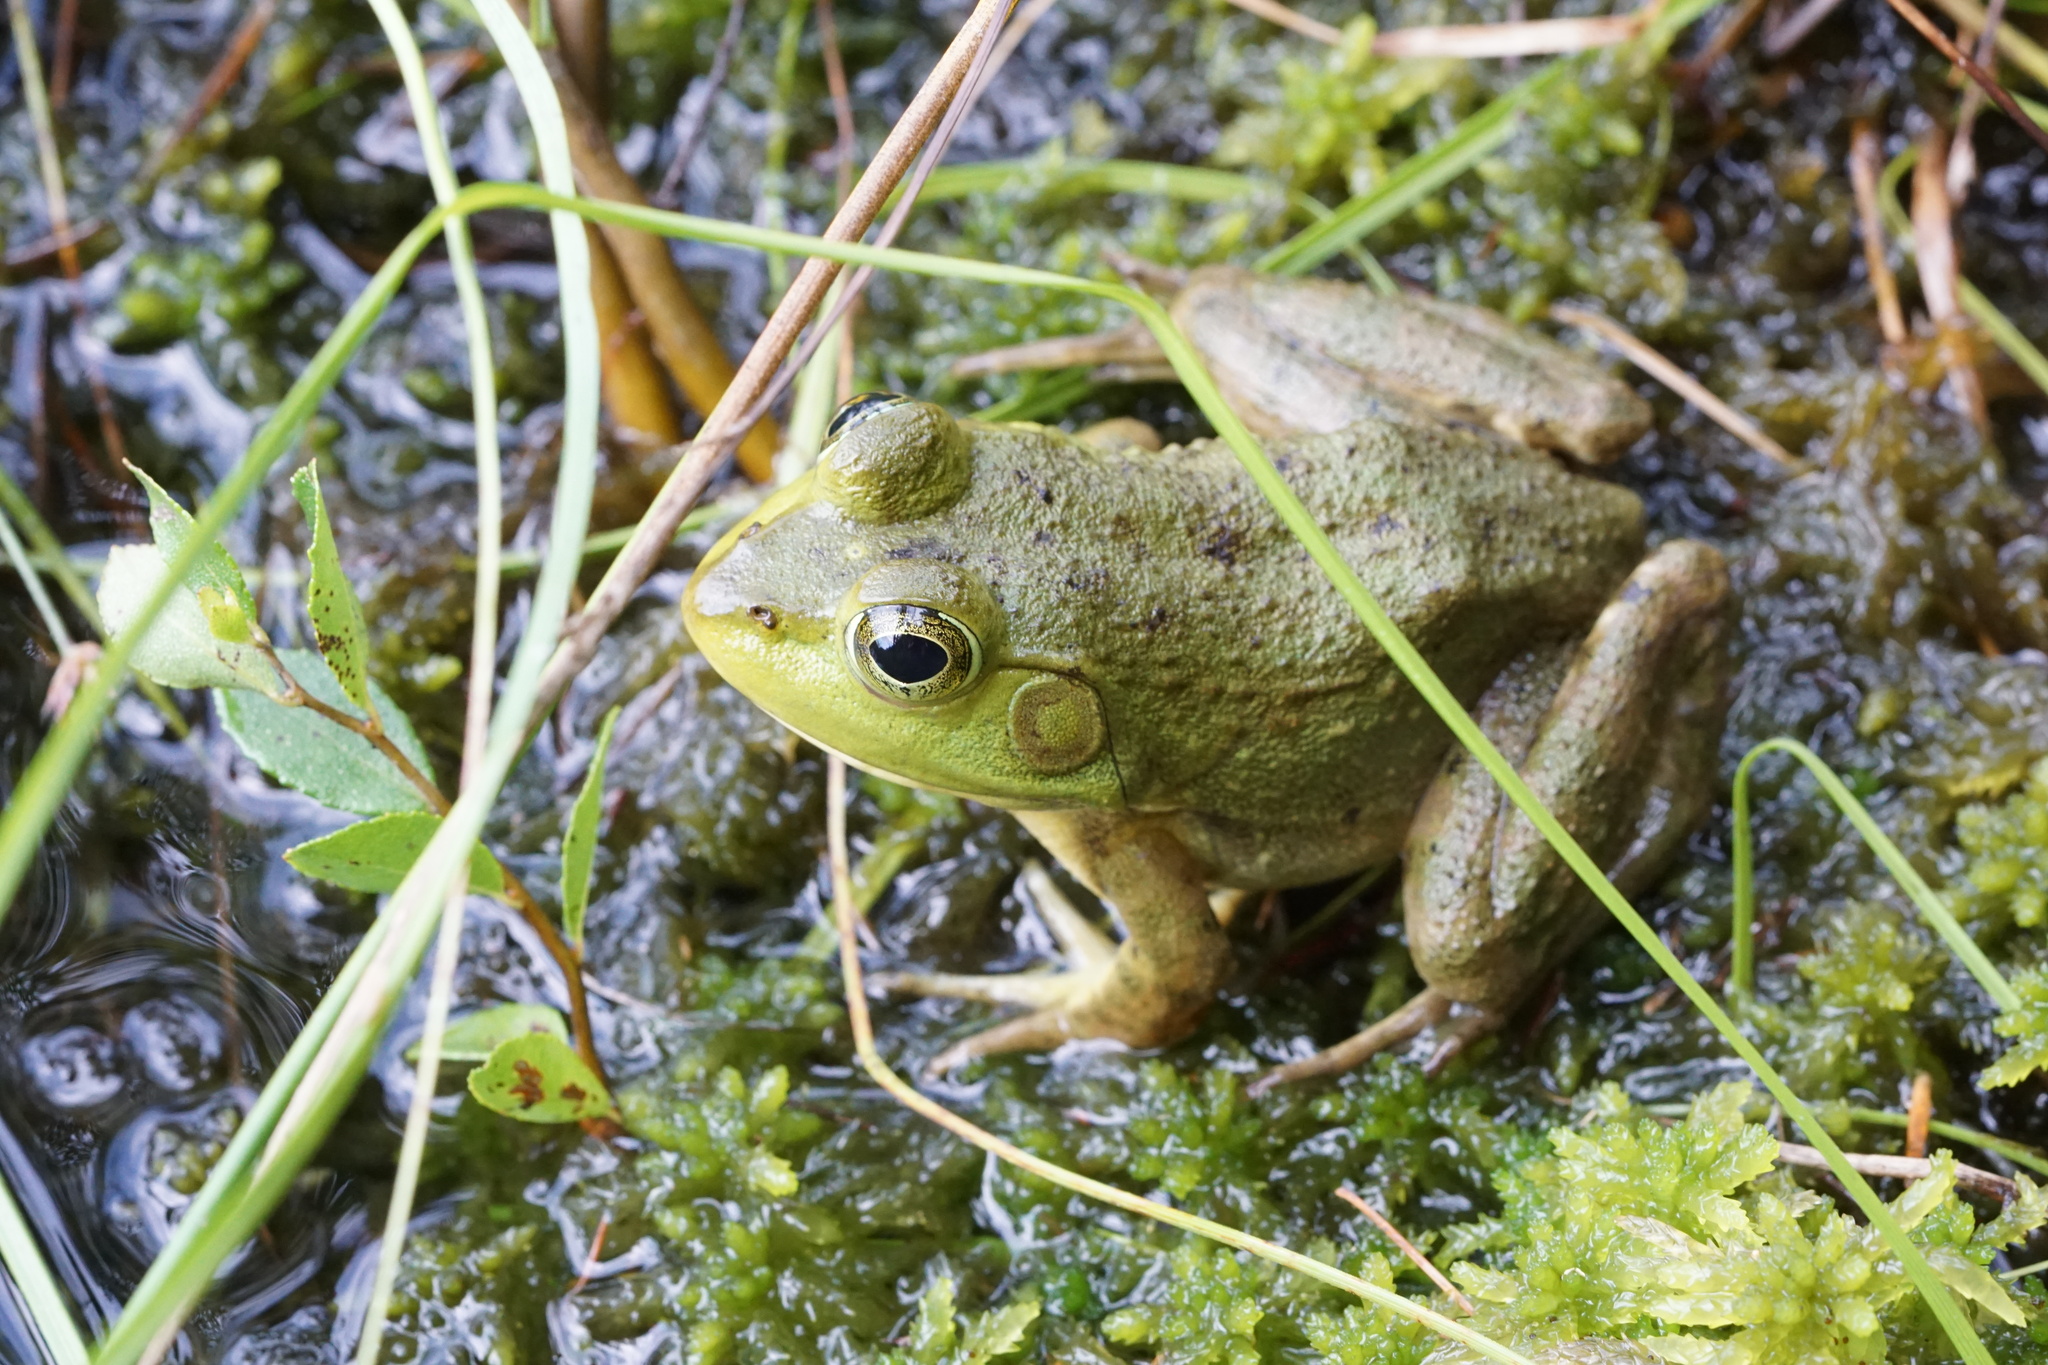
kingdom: Animalia
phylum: Chordata
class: Amphibia
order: Anura
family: Ranidae
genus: Lithobates
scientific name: Lithobates catesbeianus
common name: American bullfrog
